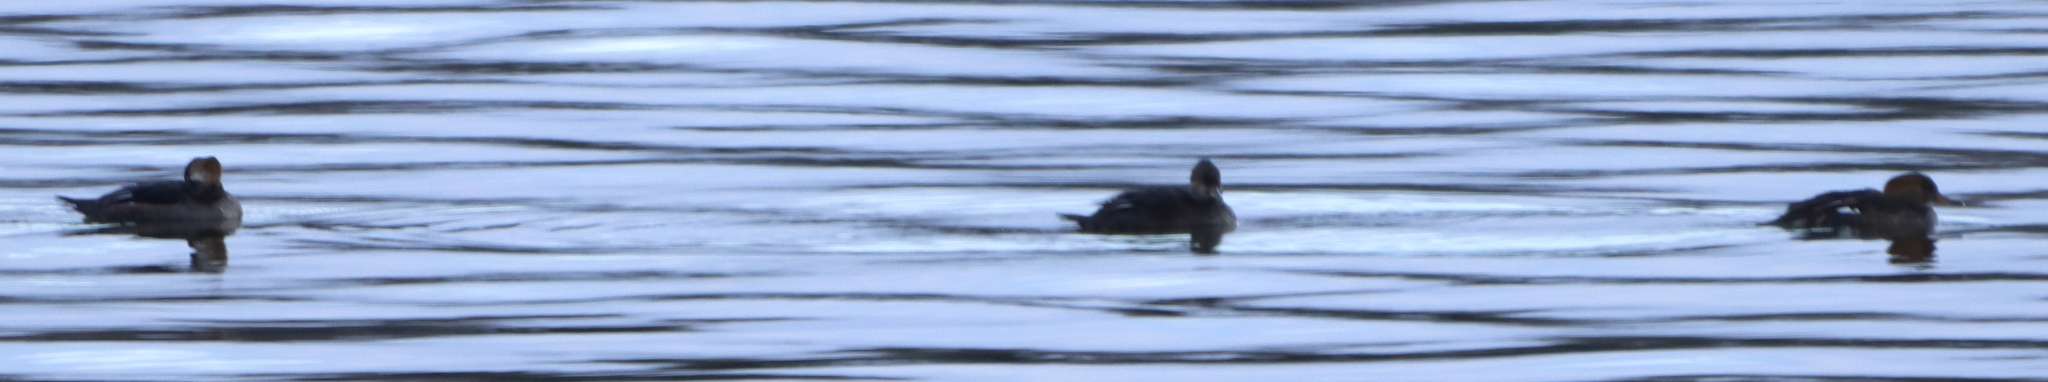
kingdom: Animalia
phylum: Chordata
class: Aves
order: Anseriformes
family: Anatidae
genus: Lophodytes
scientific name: Lophodytes cucullatus
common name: Hooded merganser
